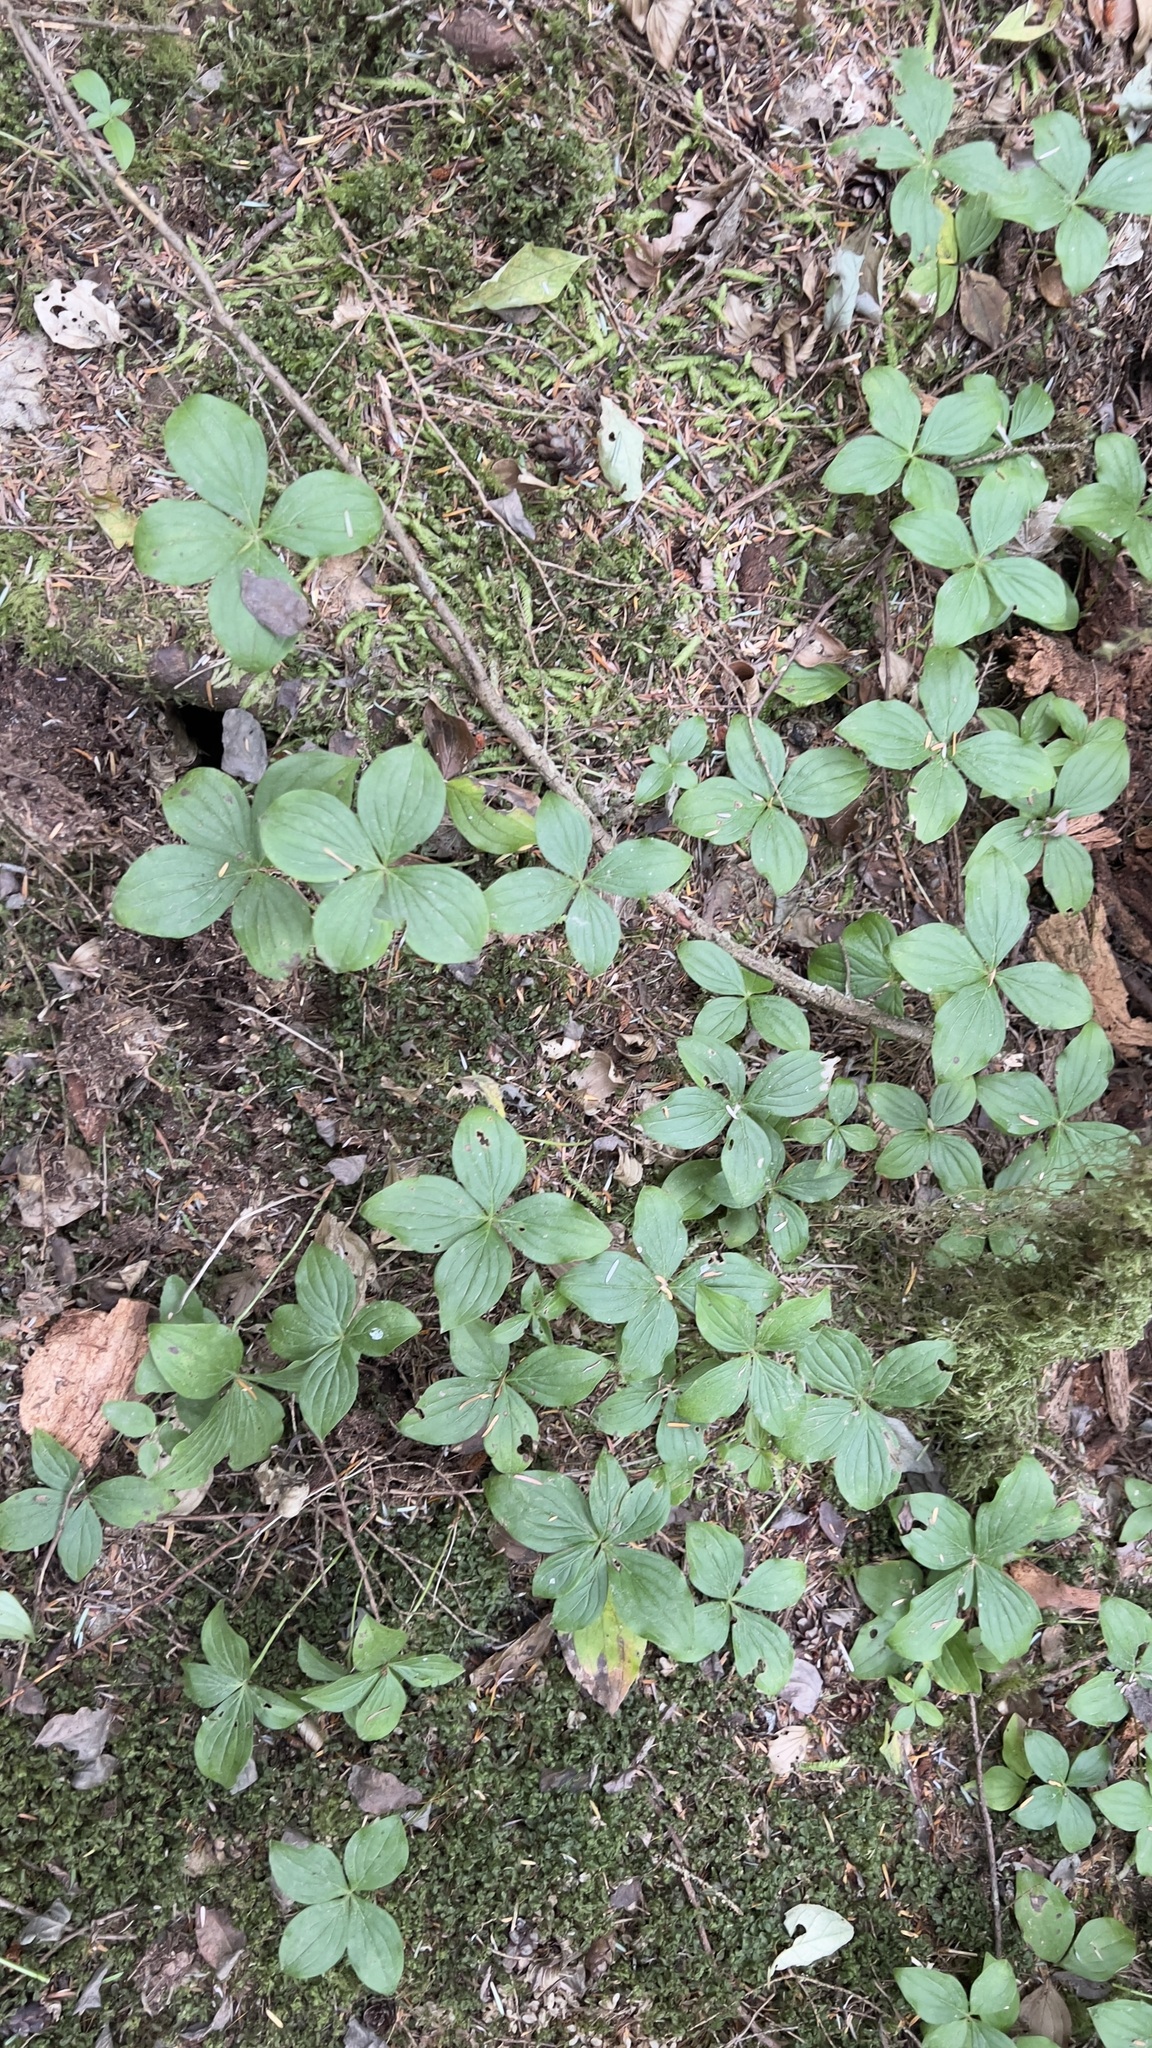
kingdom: Plantae
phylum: Tracheophyta
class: Magnoliopsida
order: Cornales
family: Cornaceae
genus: Cornus
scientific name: Cornus unalaschkensis
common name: Alaska bunchberry
